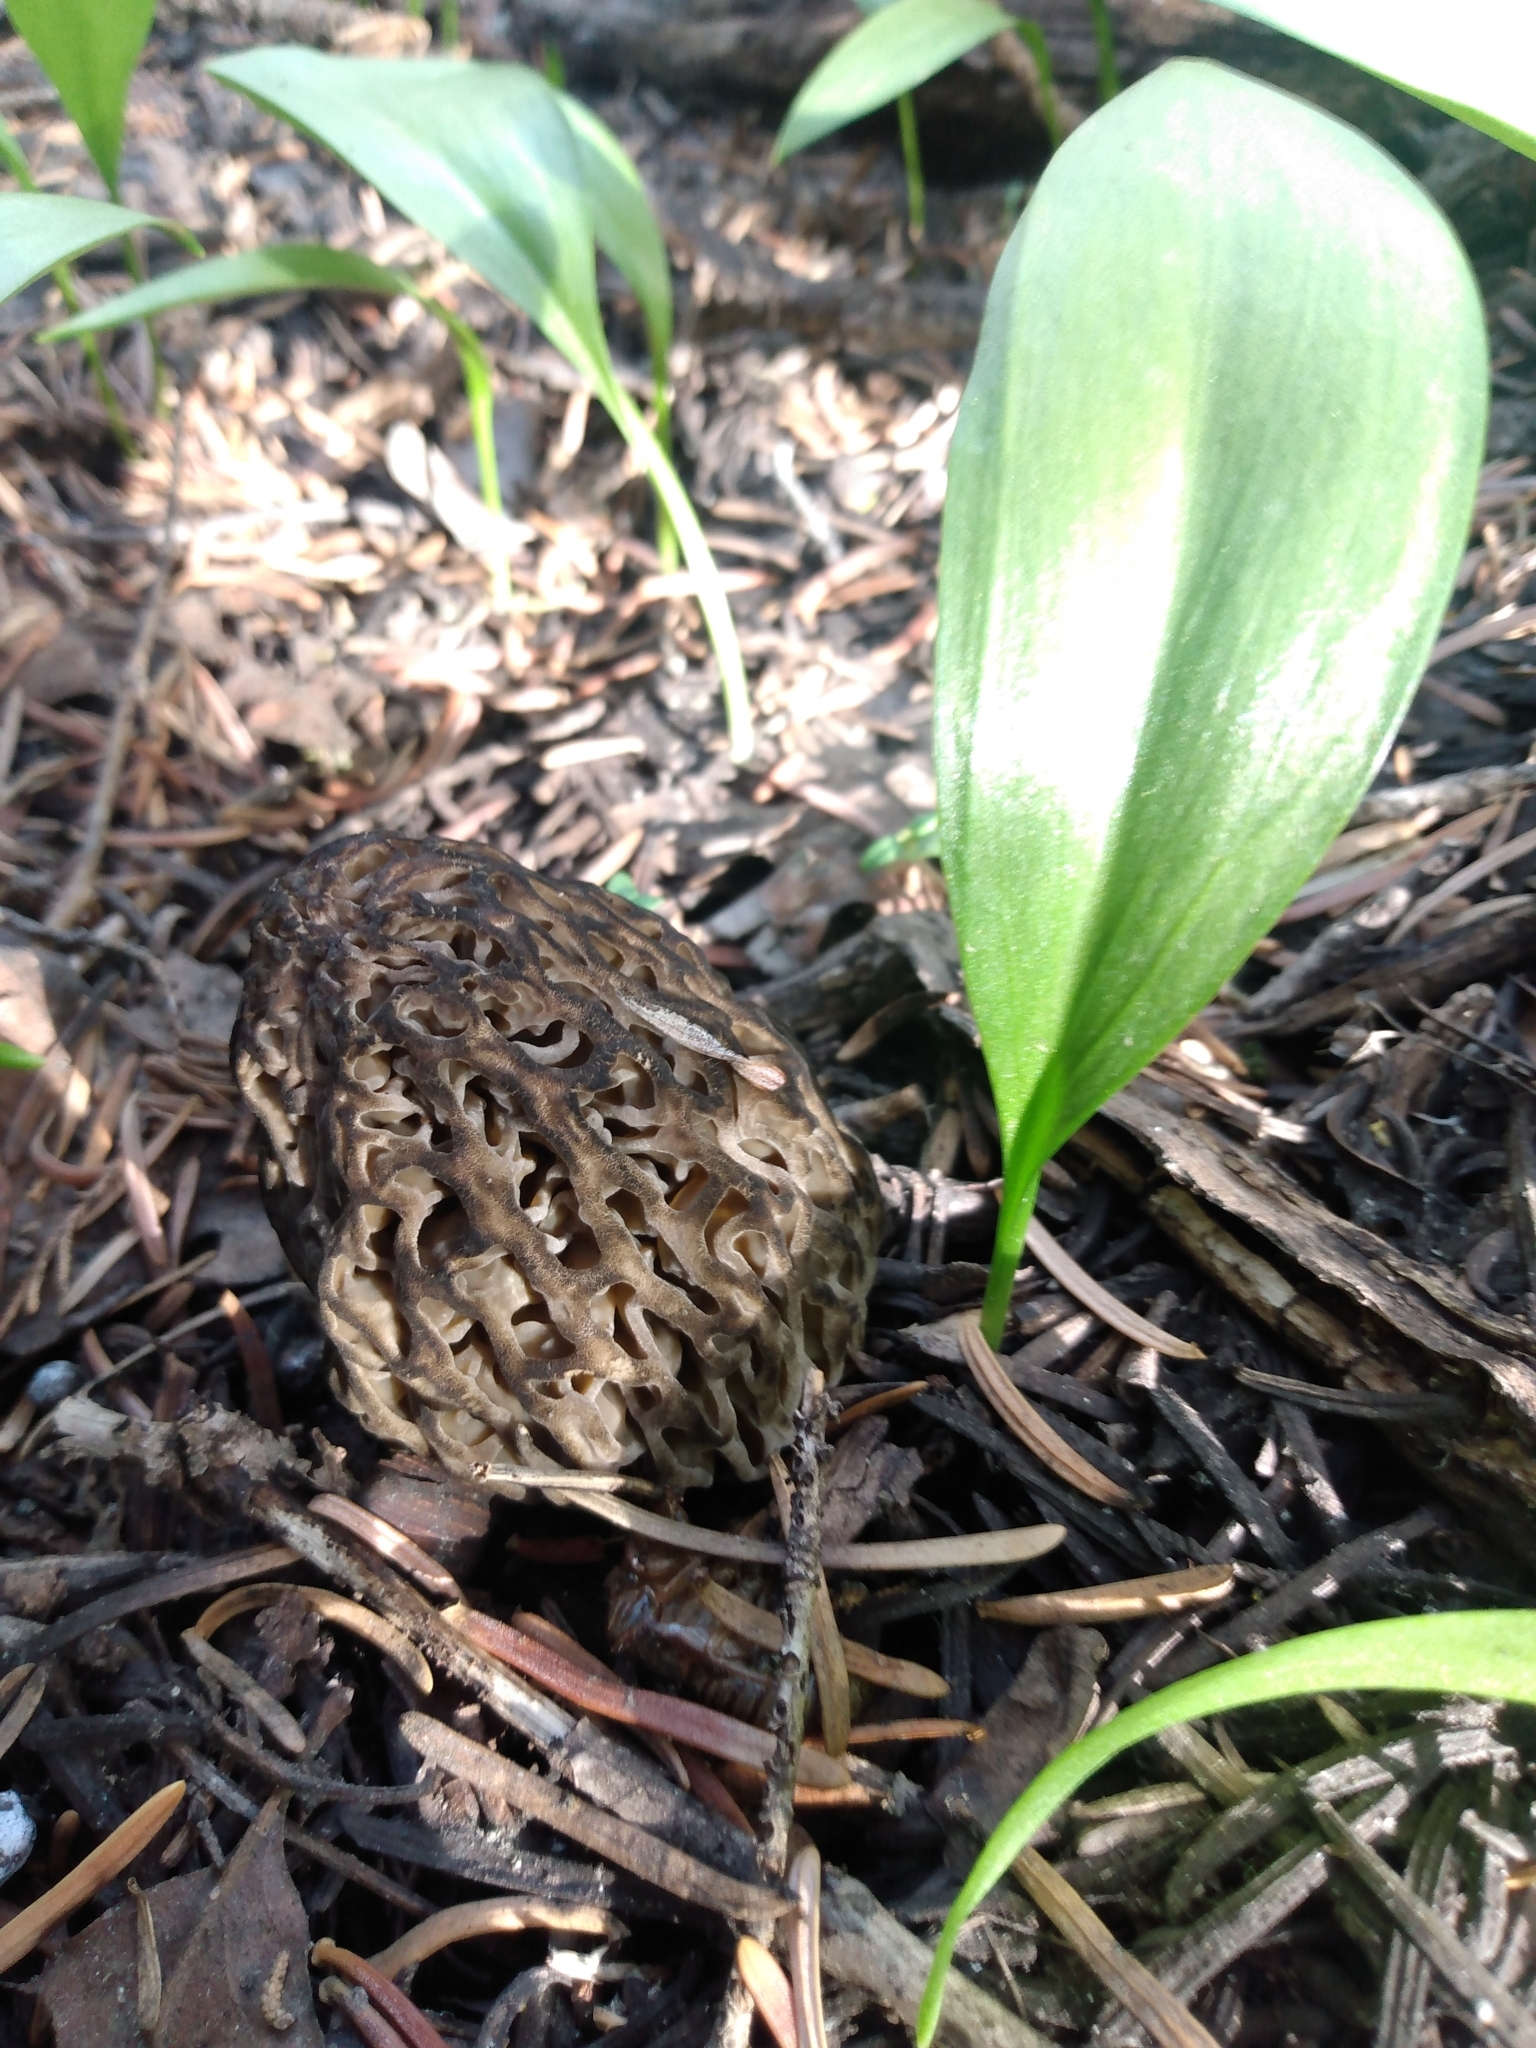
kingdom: Fungi
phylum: Ascomycota
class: Pezizomycetes
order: Pezizales
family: Morchellaceae
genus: Morchella
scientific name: Morchella snyderi
